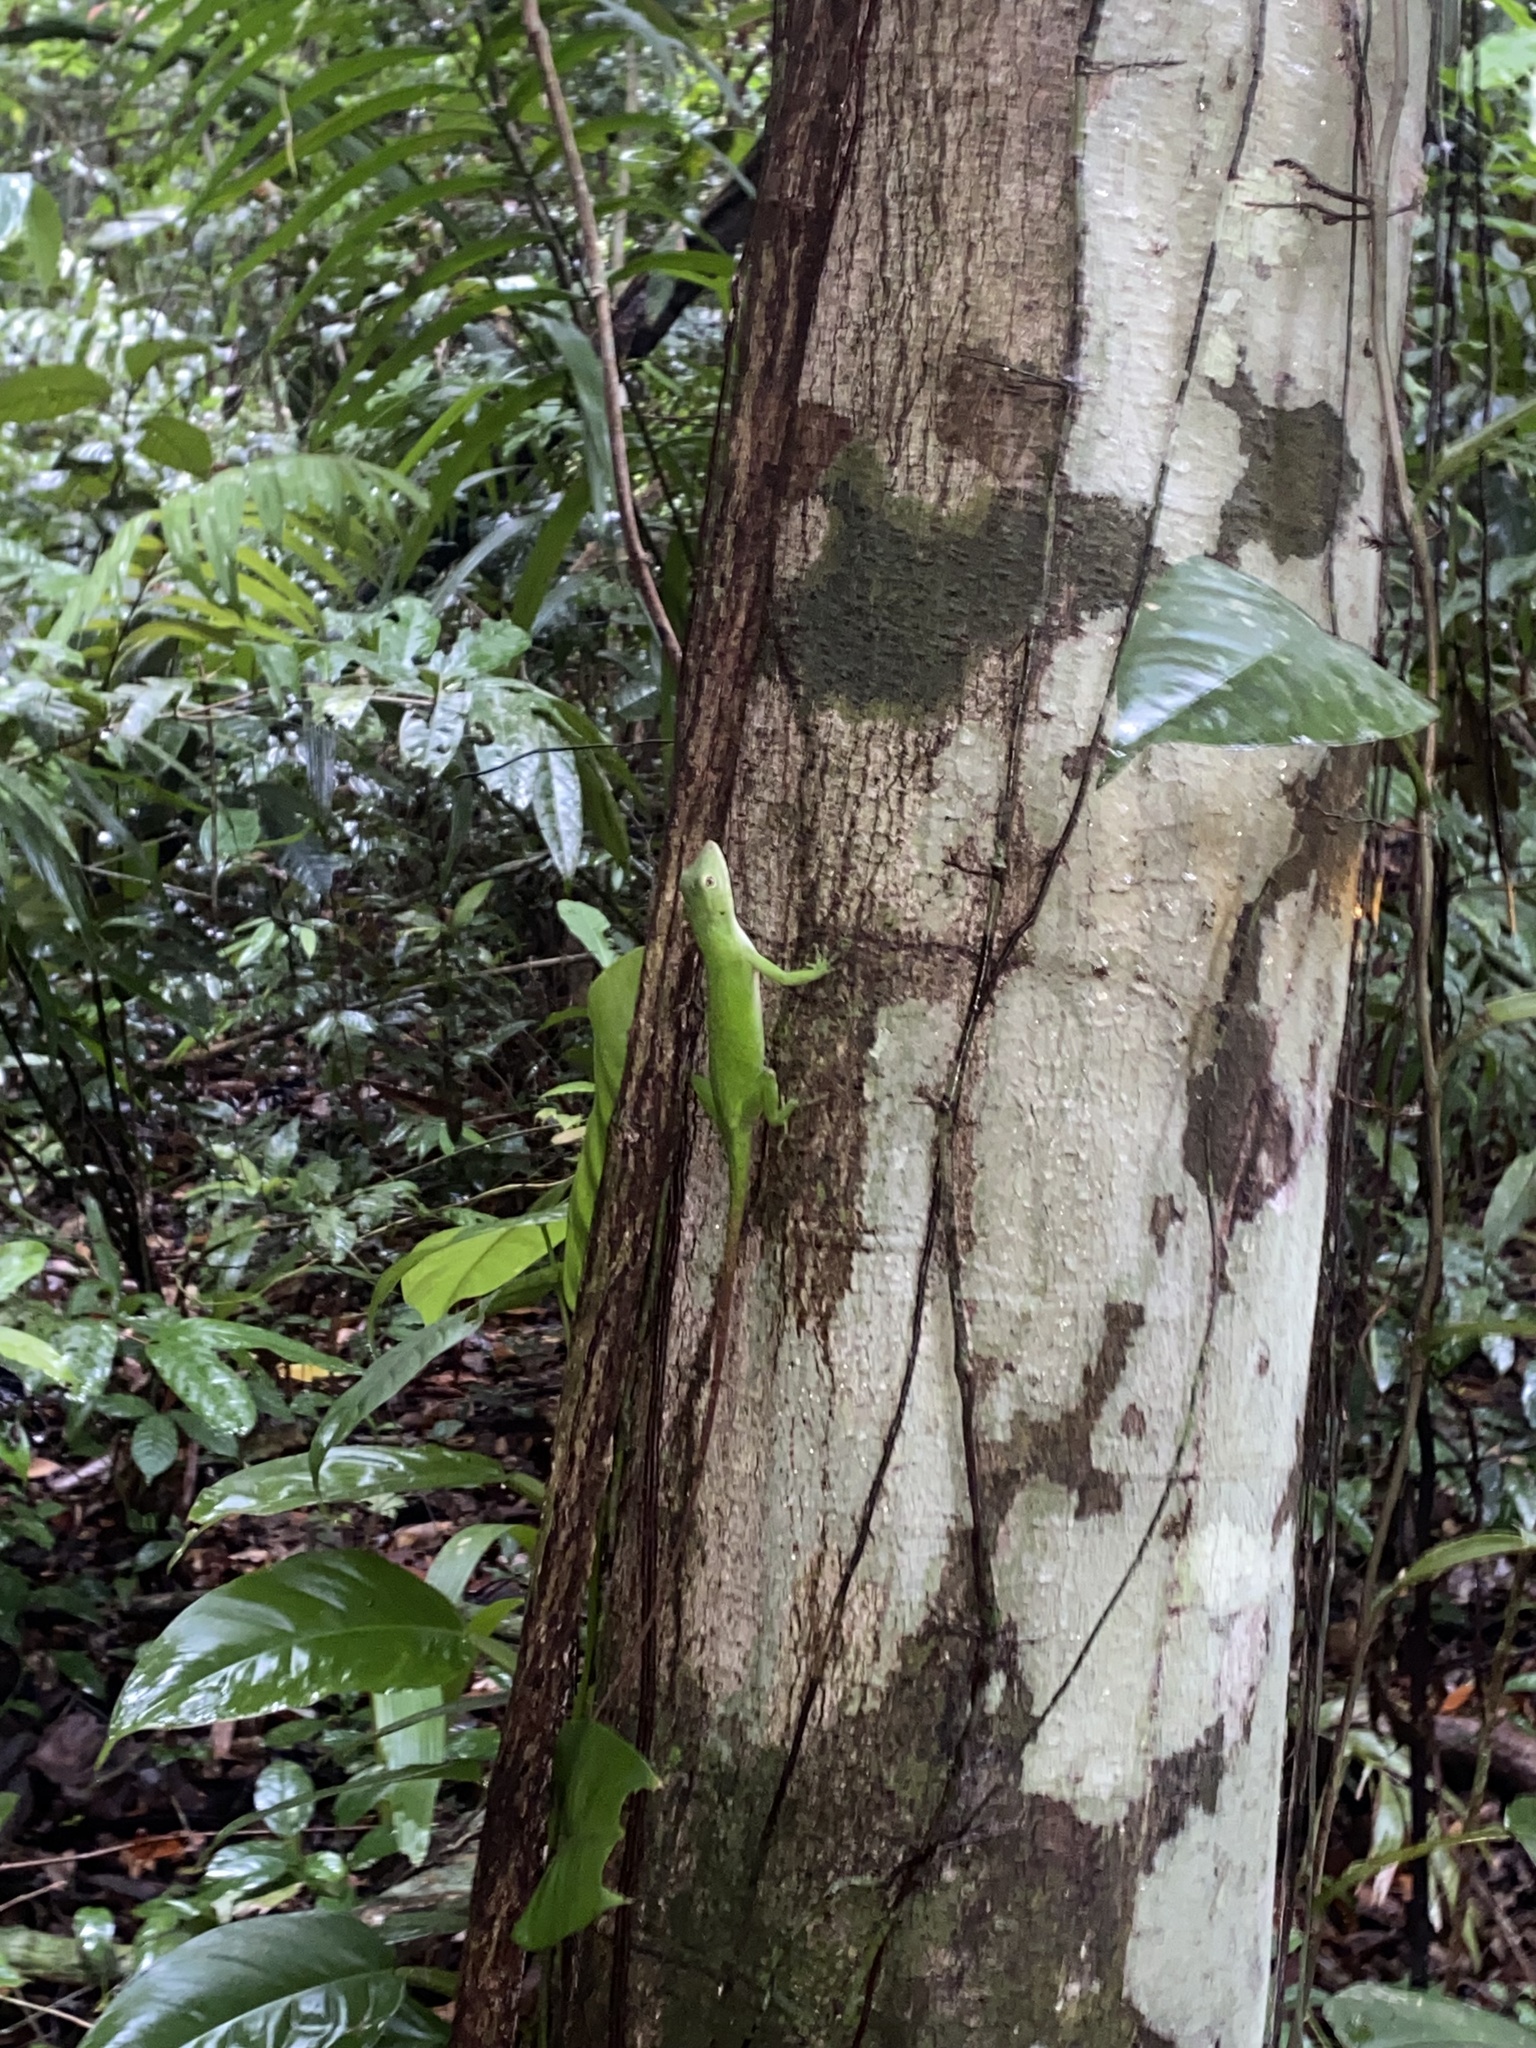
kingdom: Animalia
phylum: Chordata
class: Squamata
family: Dactyloidae
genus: Anolis
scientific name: Anolis biporcatus
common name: Giant green anole
